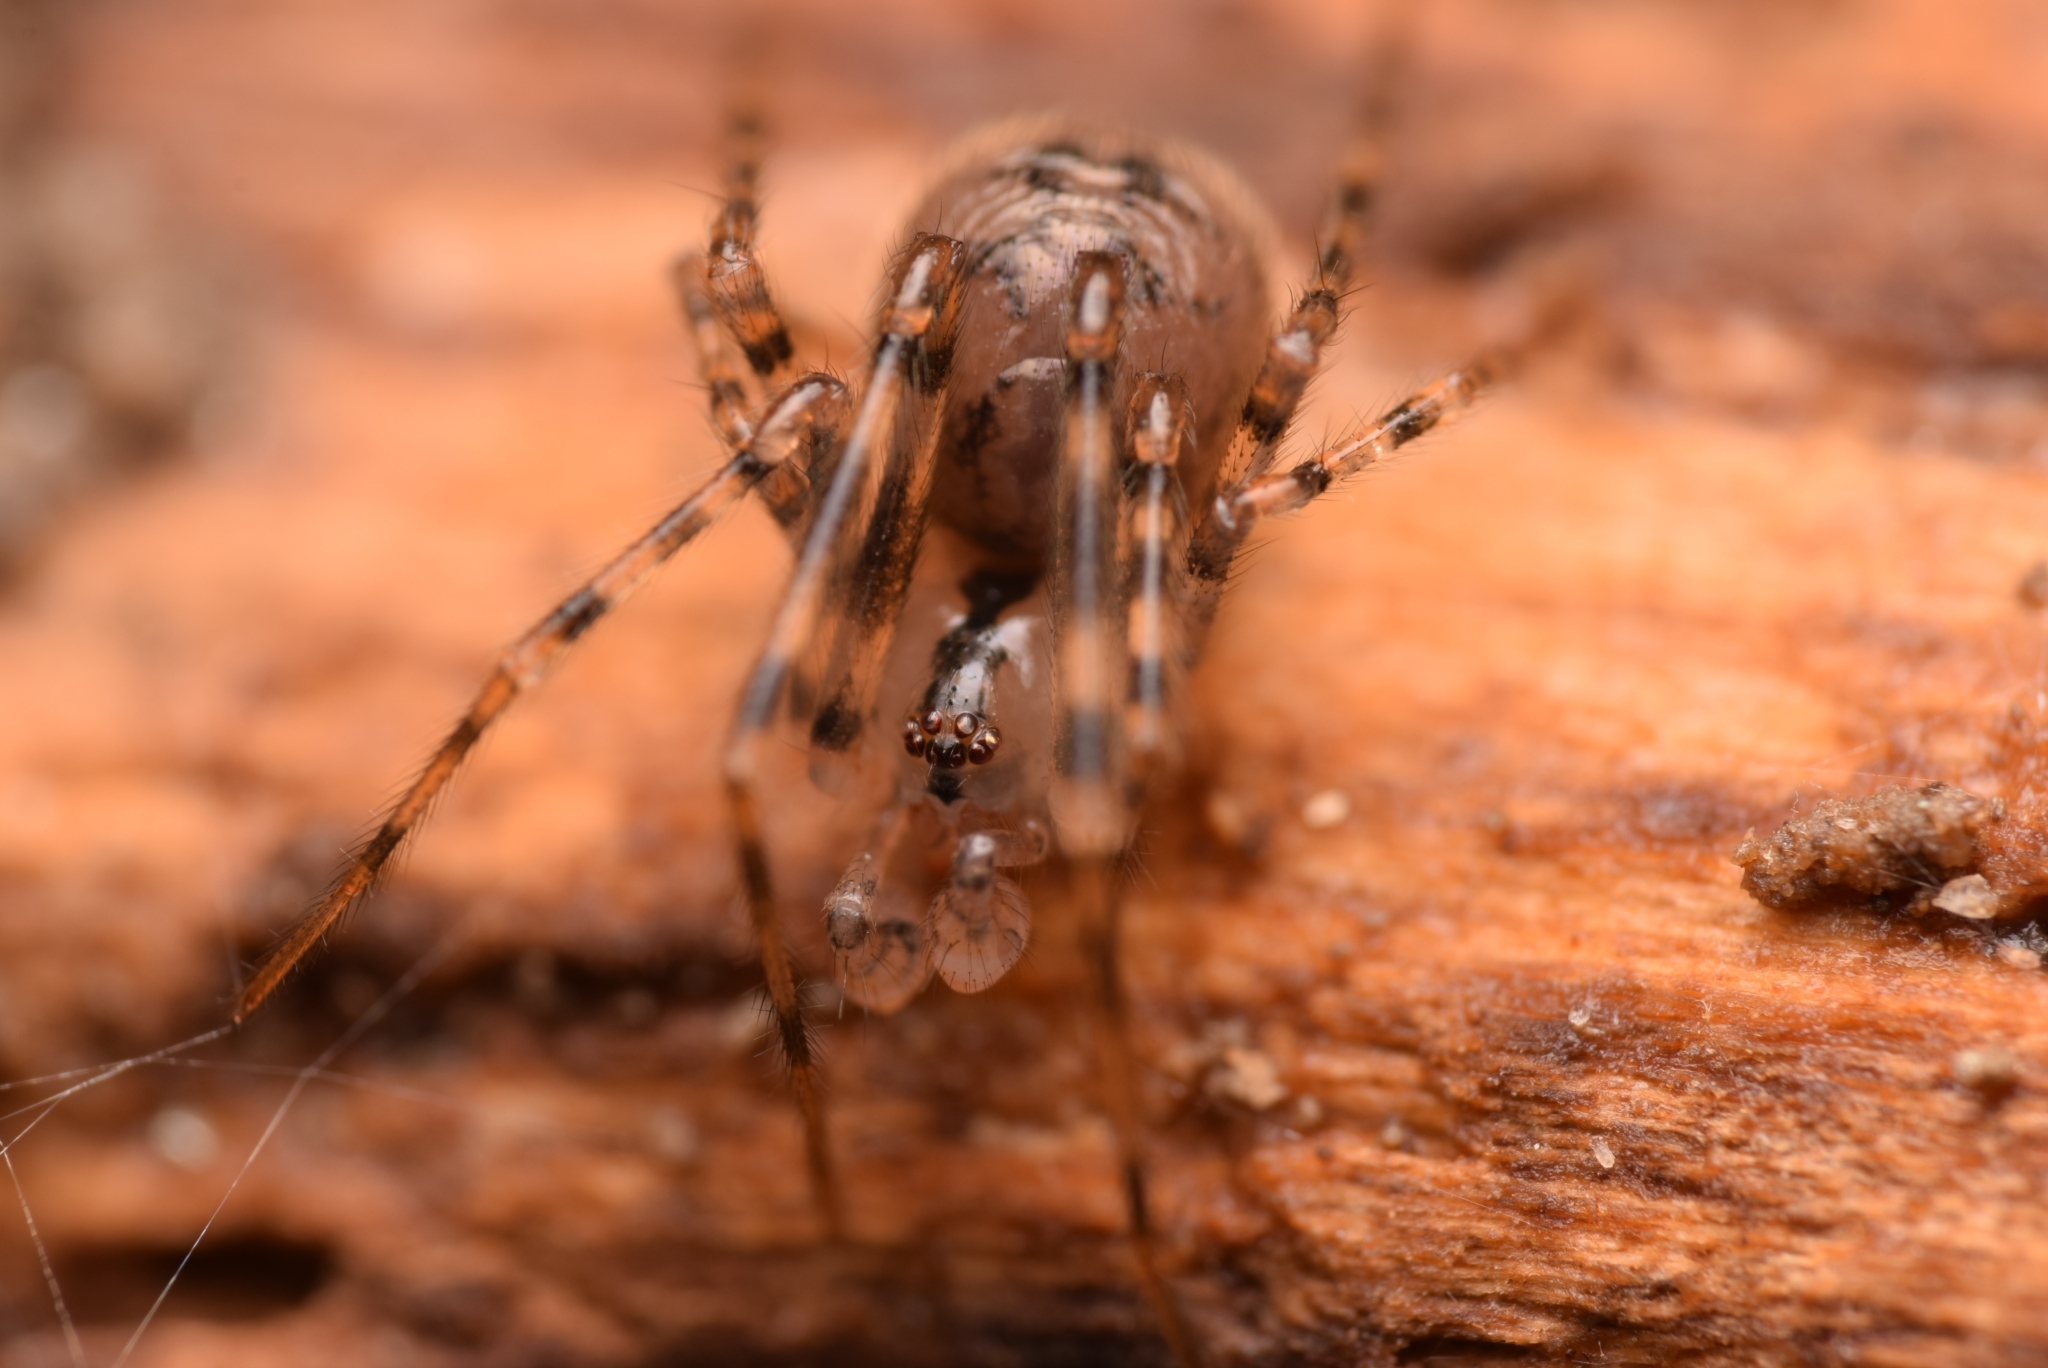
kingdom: Animalia
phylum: Arthropoda
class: Arachnida
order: Araneae
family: Nesticidae
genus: Nesticus
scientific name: Nesticus cellulanus
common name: Comb-footed cellar spider
